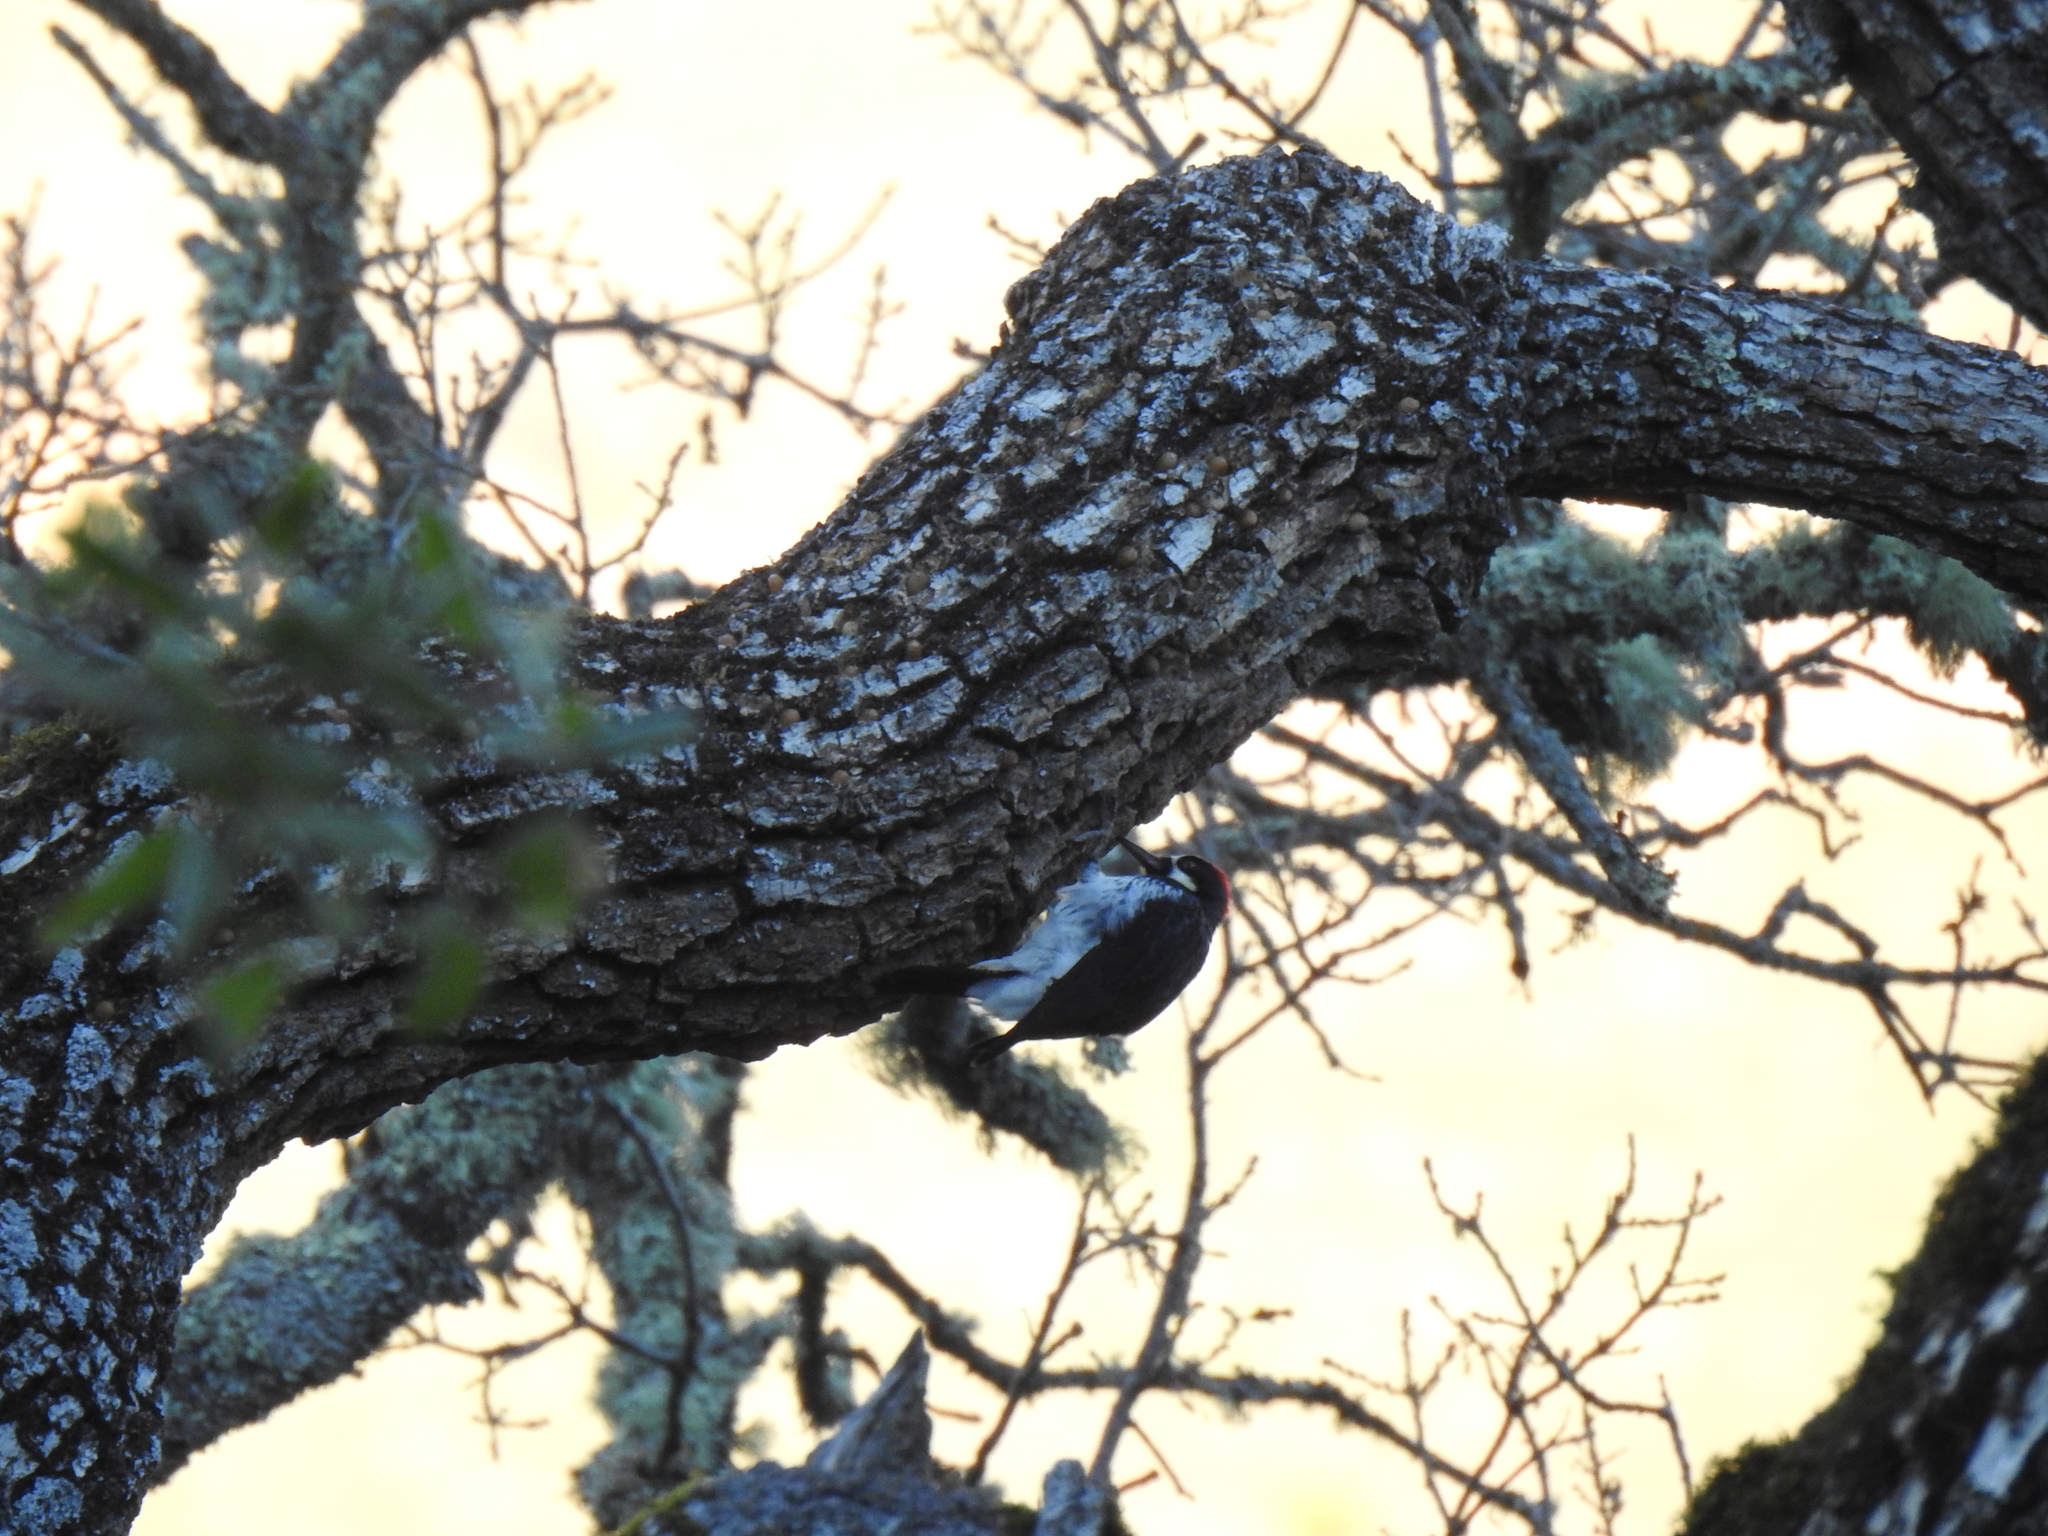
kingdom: Animalia
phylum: Chordata
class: Aves
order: Piciformes
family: Picidae
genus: Melanerpes
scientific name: Melanerpes formicivorus
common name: Acorn woodpecker
